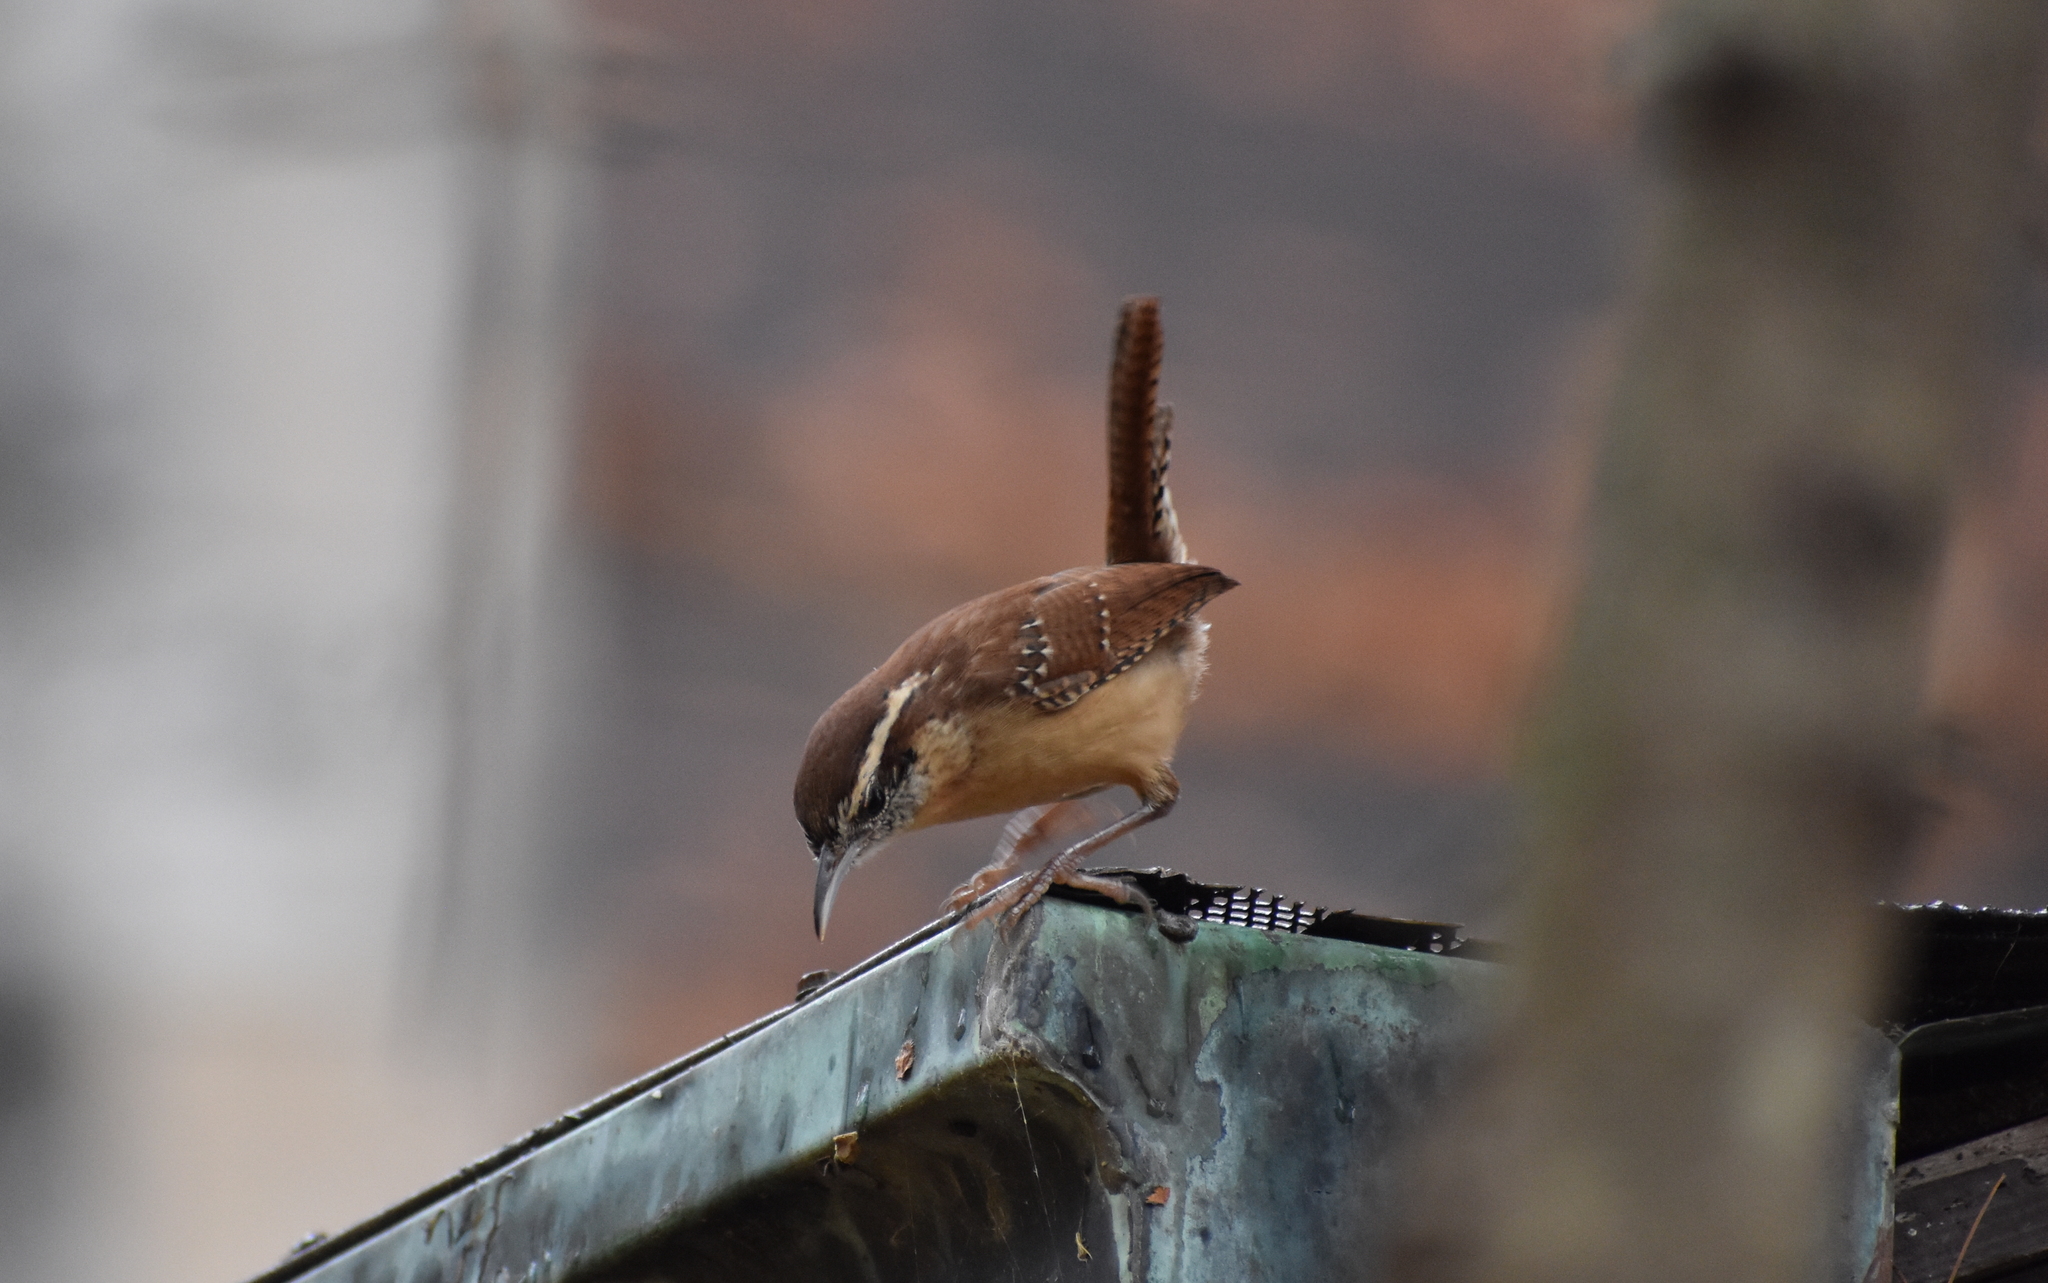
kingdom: Animalia
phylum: Chordata
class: Aves
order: Passeriformes
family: Troglodytidae
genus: Thryothorus
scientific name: Thryothorus ludovicianus
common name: Carolina wren
